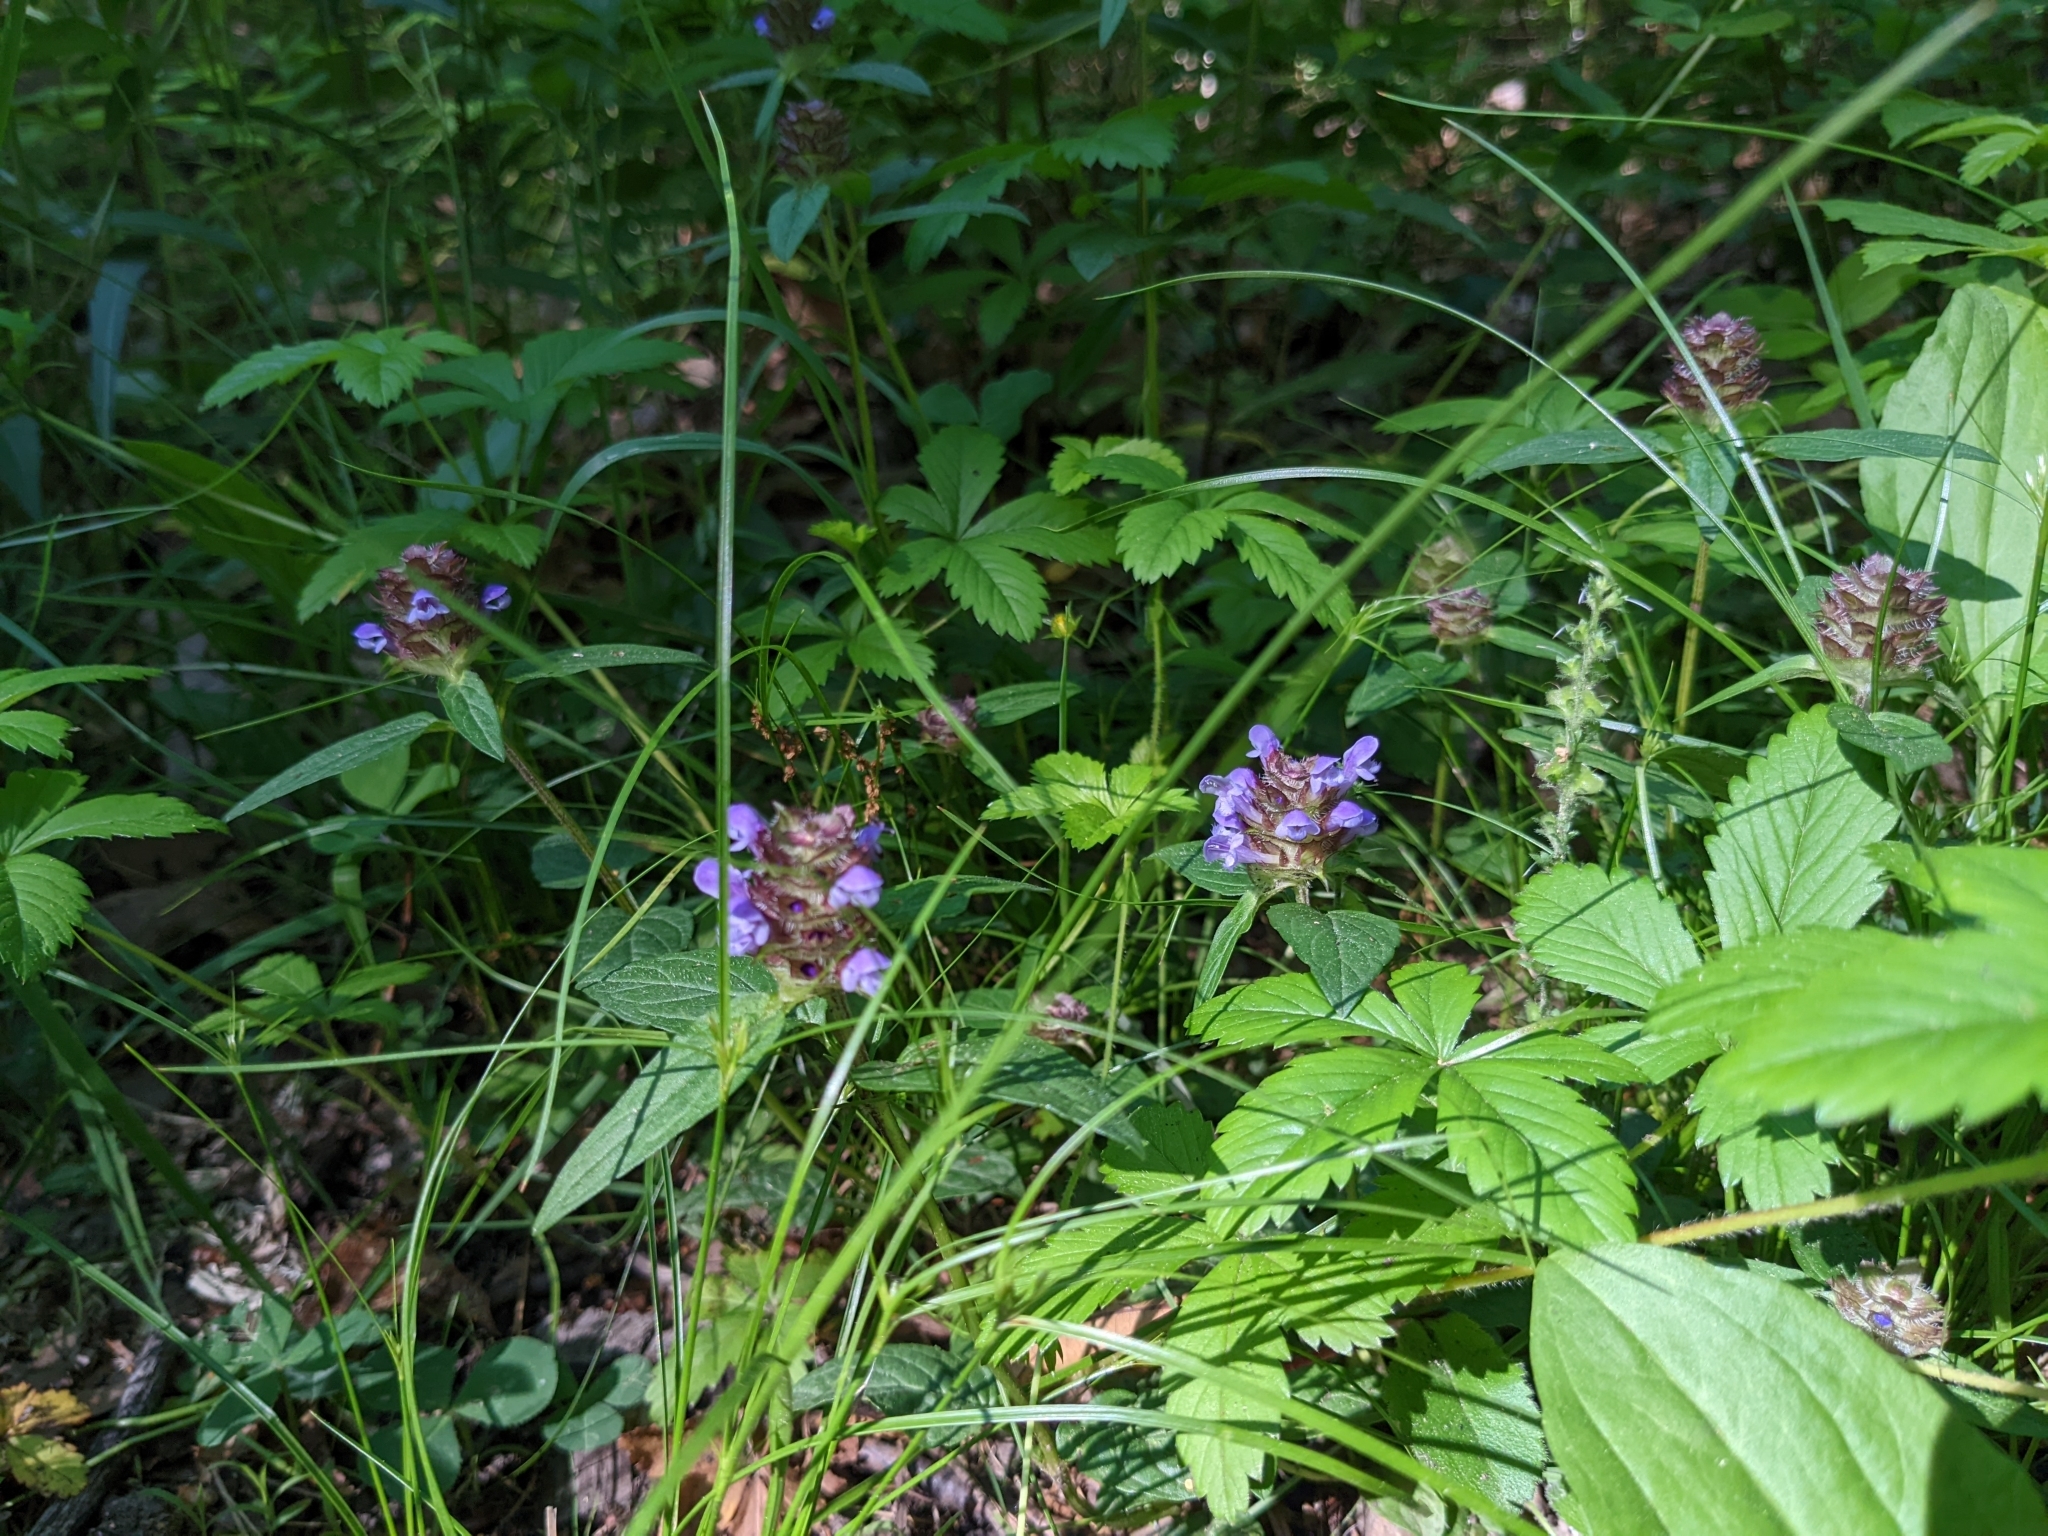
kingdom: Plantae
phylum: Tracheophyta
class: Magnoliopsida
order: Lamiales
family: Lamiaceae
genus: Prunella
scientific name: Prunella vulgaris
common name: Heal-all
